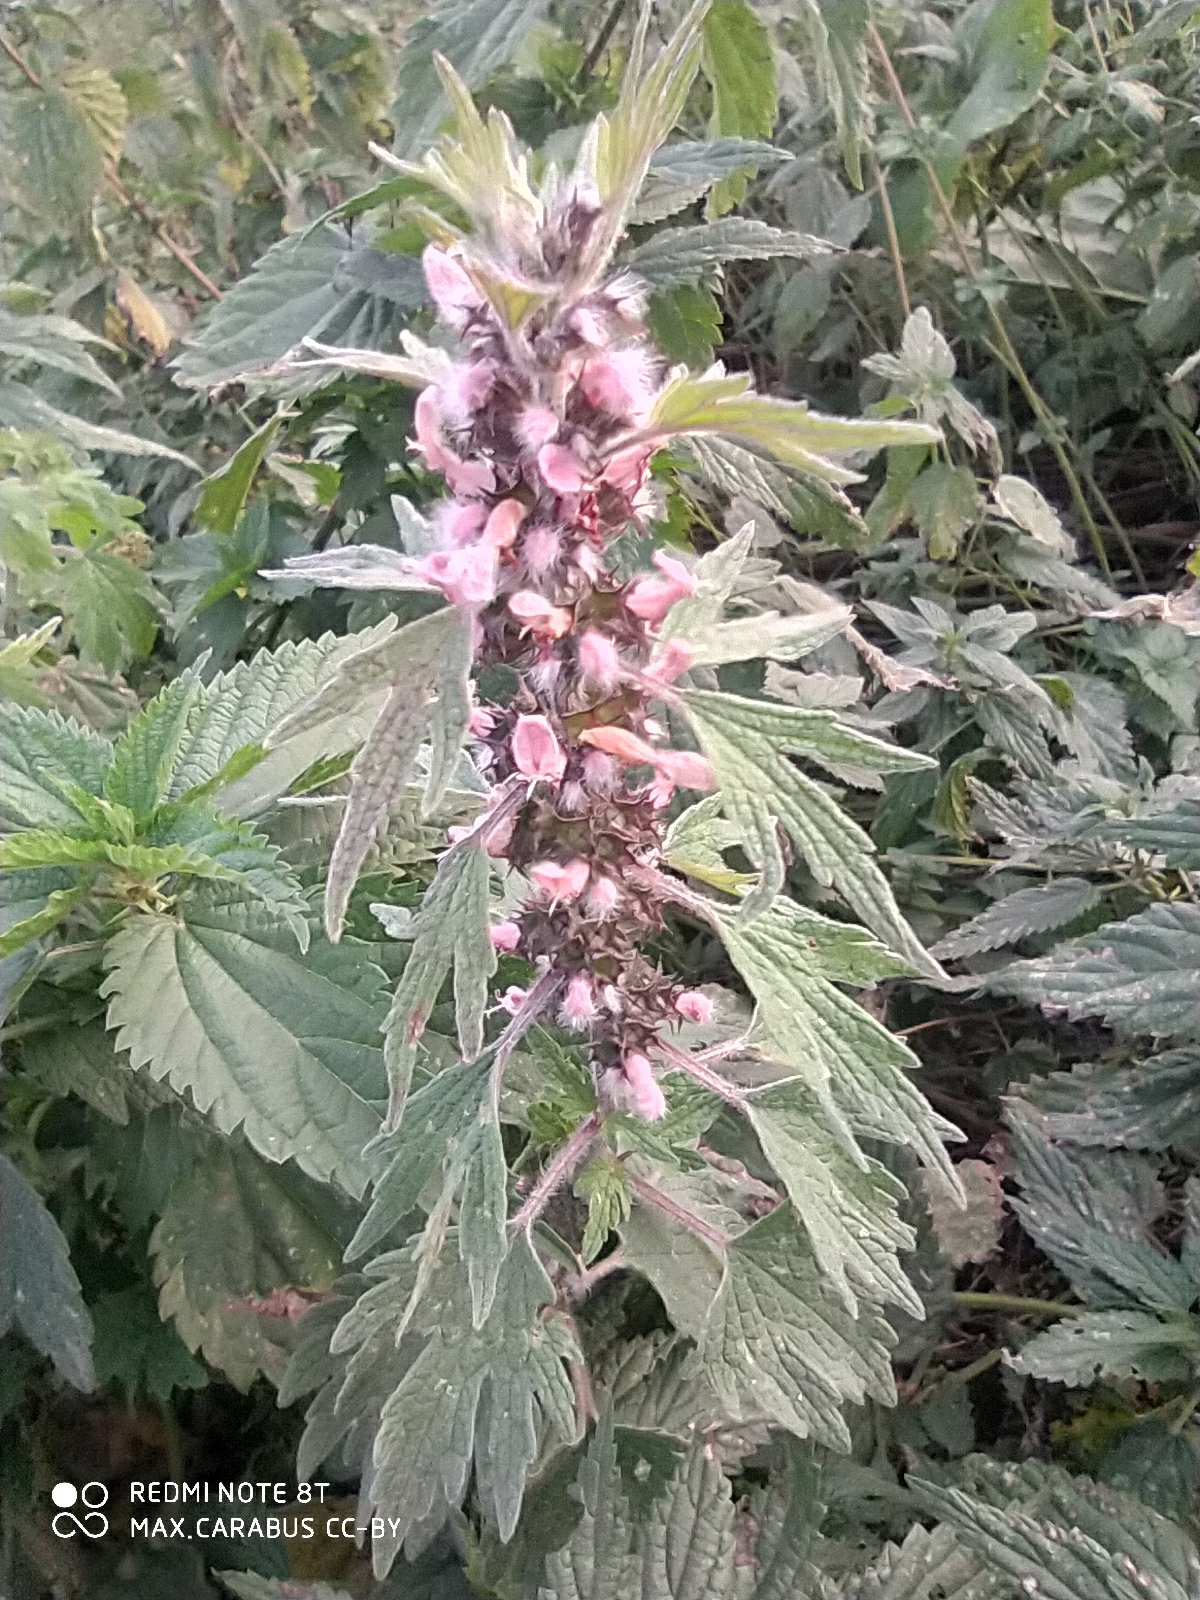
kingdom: Plantae
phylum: Tracheophyta
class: Magnoliopsida
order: Lamiales
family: Lamiaceae
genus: Leonurus
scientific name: Leonurus quinquelobatus
